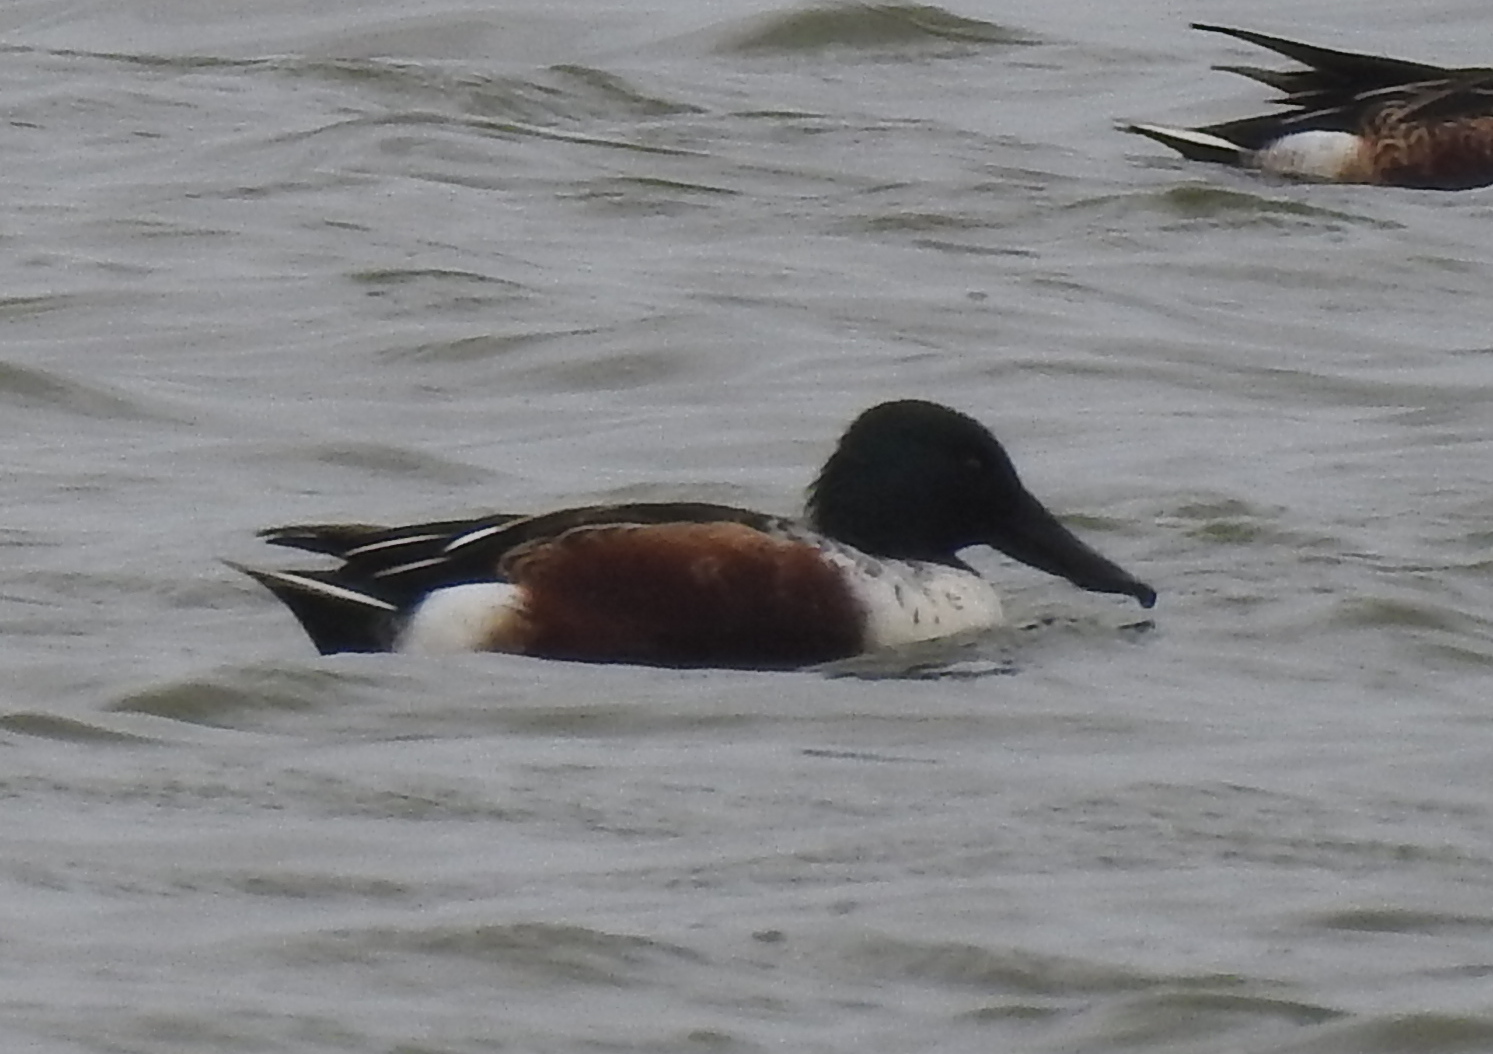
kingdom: Animalia
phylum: Chordata
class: Aves
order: Anseriformes
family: Anatidae
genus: Spatula
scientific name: Spatula clypeata
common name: Northern shoveler
